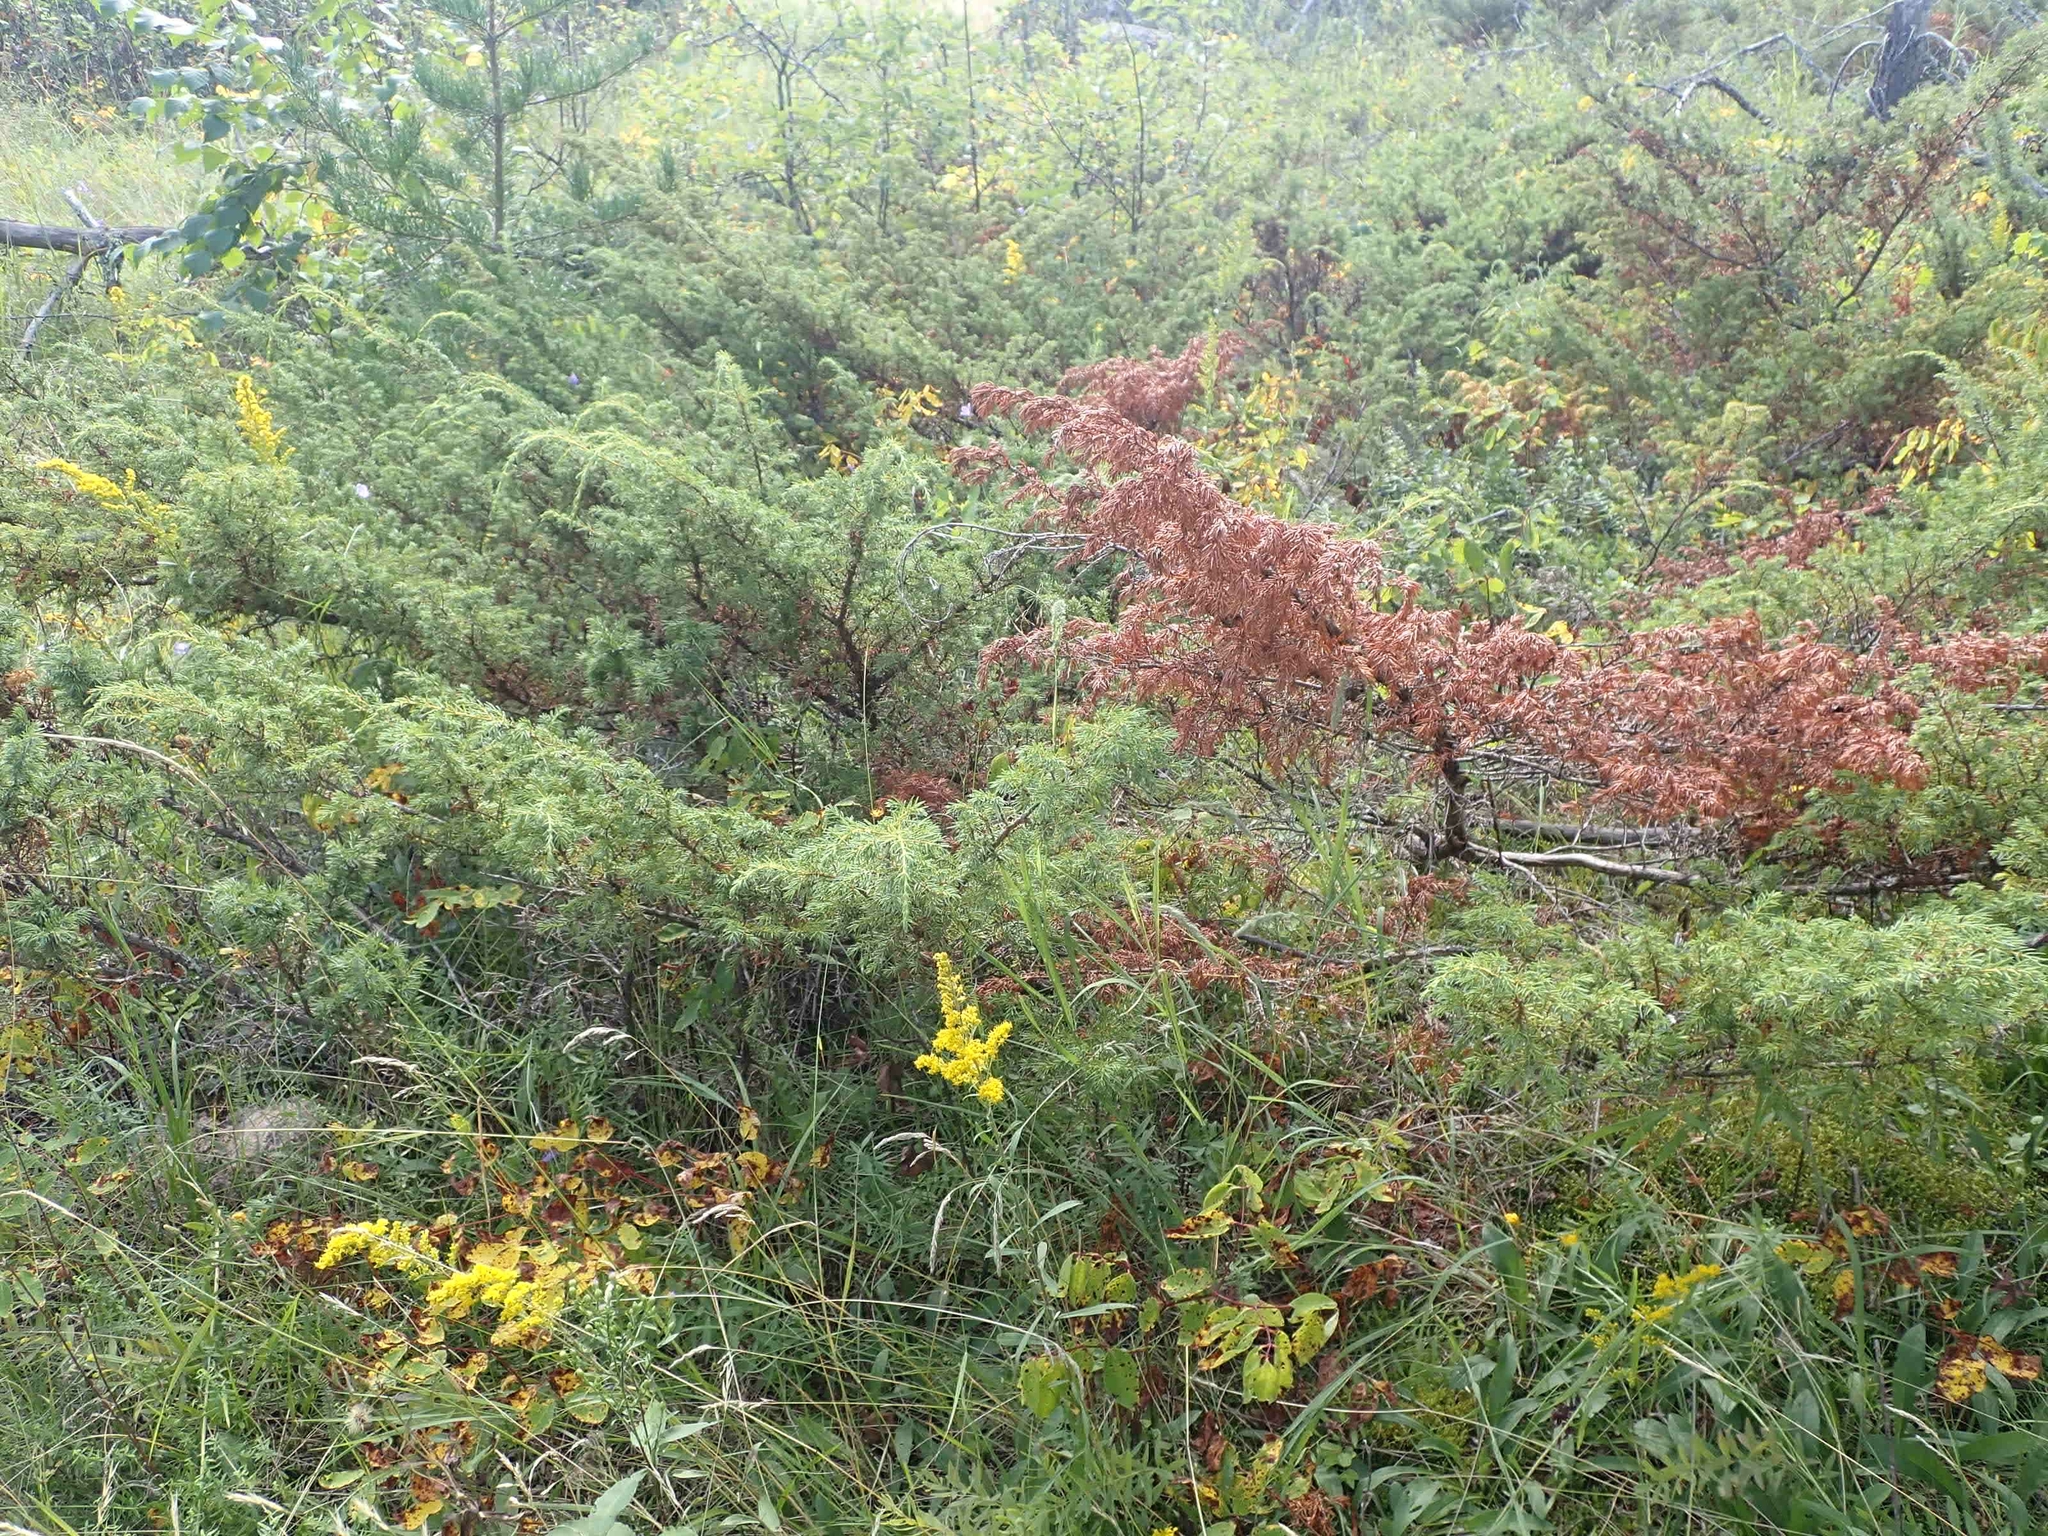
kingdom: Plantae
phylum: Tracheophyta
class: Pinopsida
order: Pinales
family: Cupressaceae
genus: Juniperus
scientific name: Juniperus communis
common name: Common juniper
